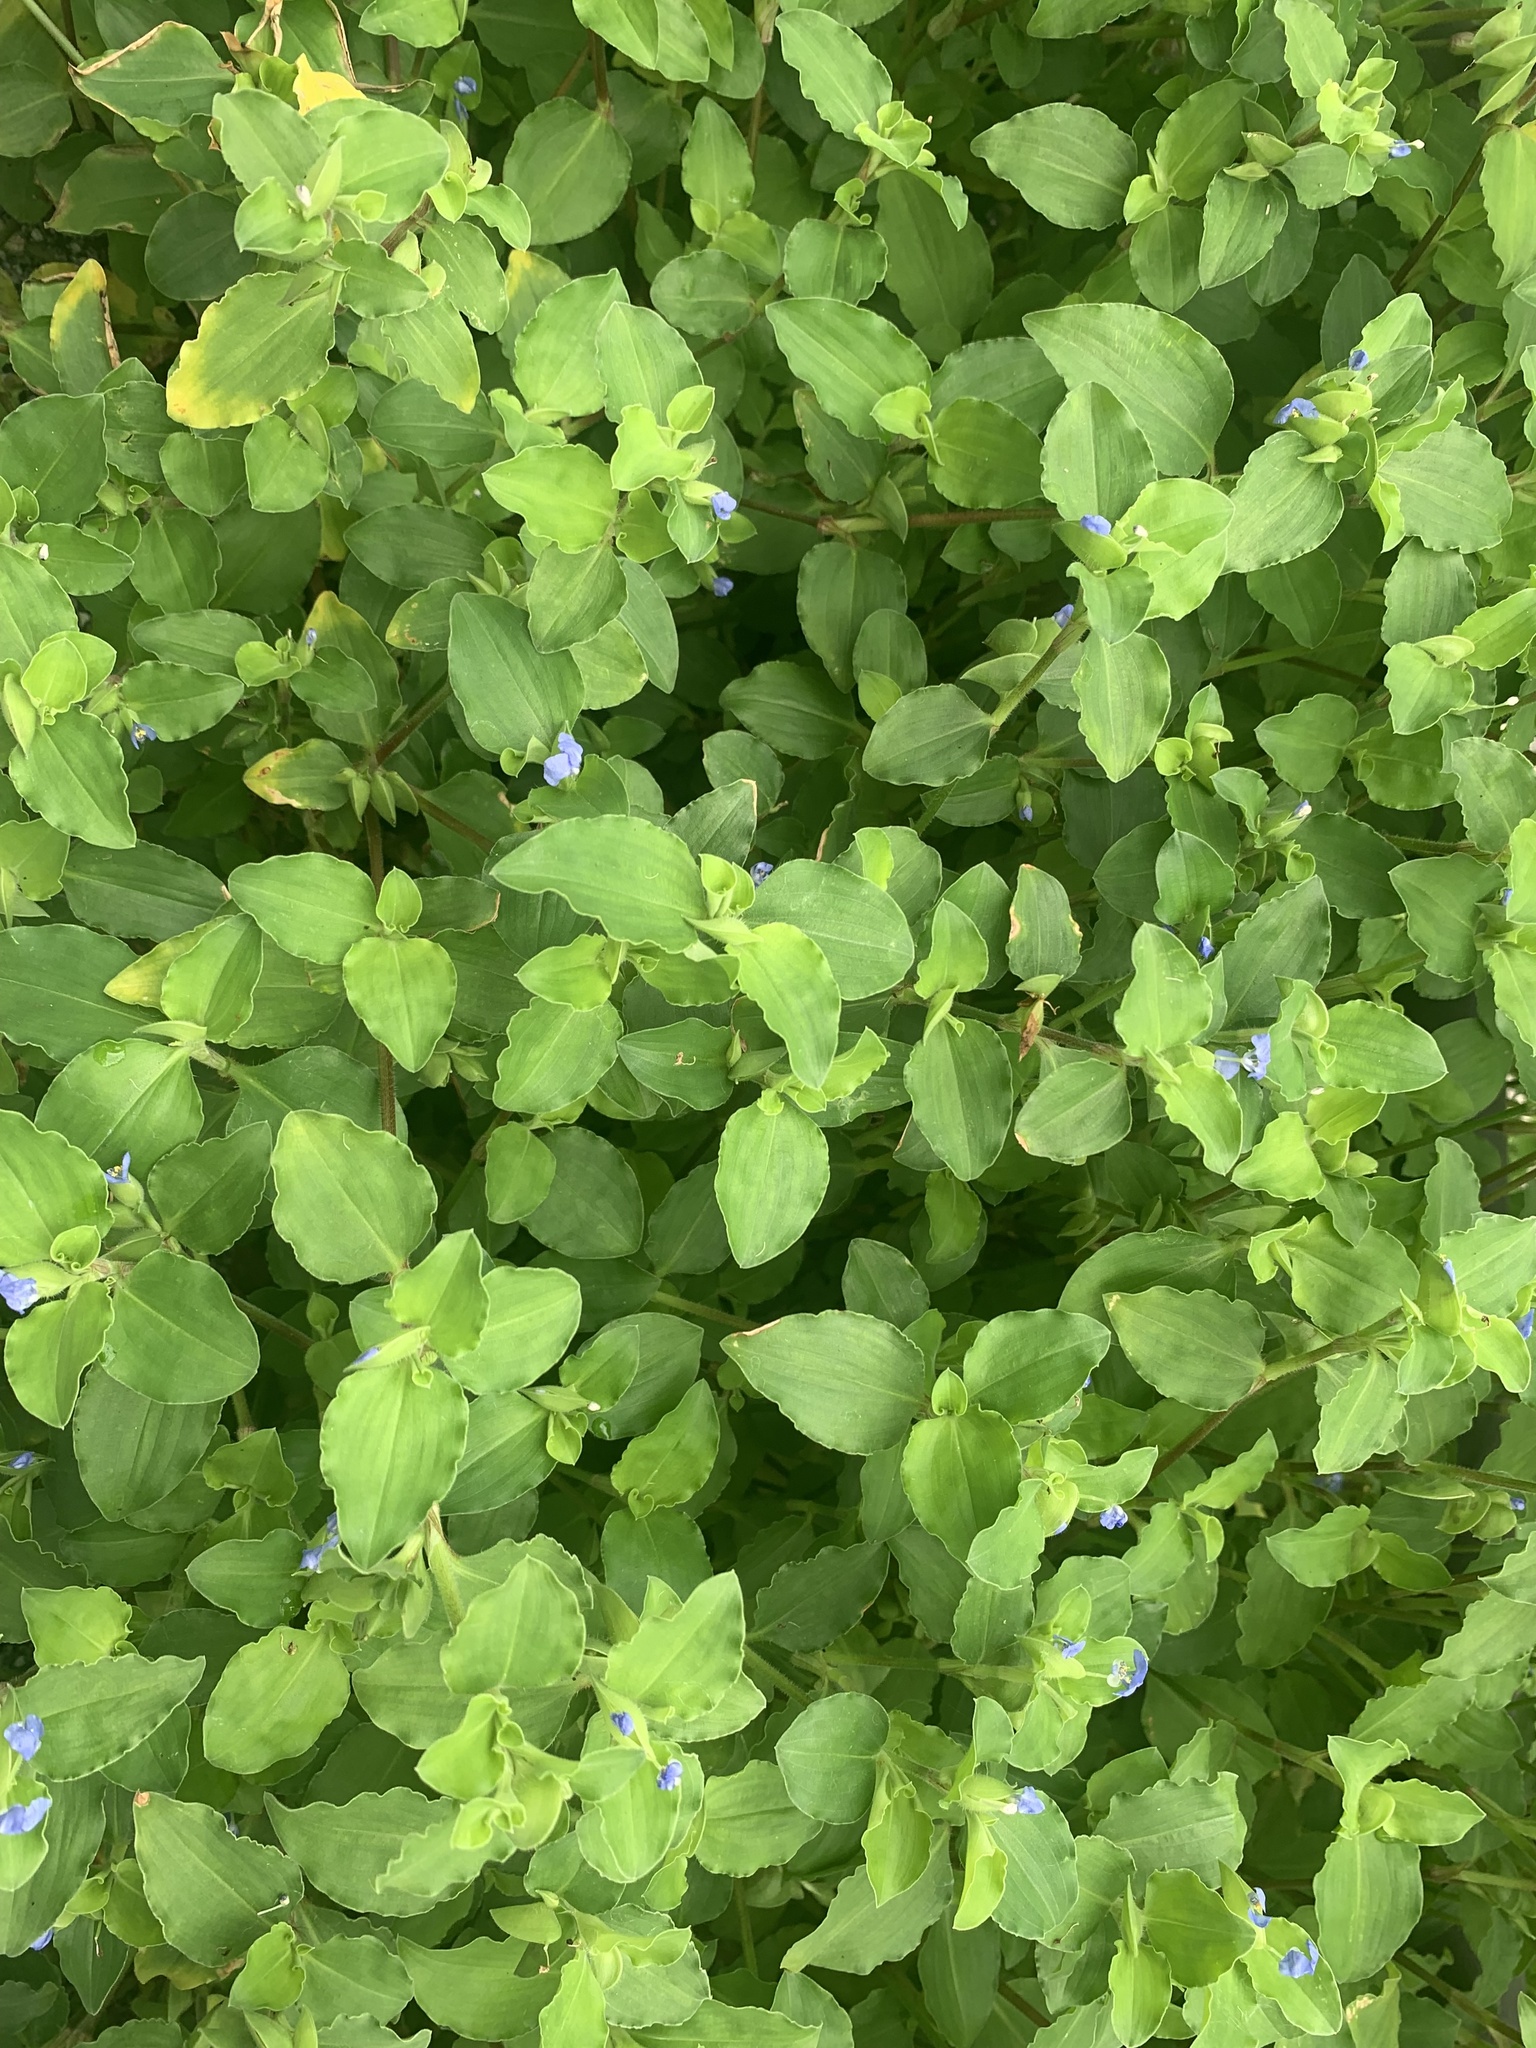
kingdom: Plantae
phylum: Tracheophyta
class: Liliopsida
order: Commelinales
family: Commelinaceae
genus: Commelina
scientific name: Commelina benghalensis
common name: Jio
